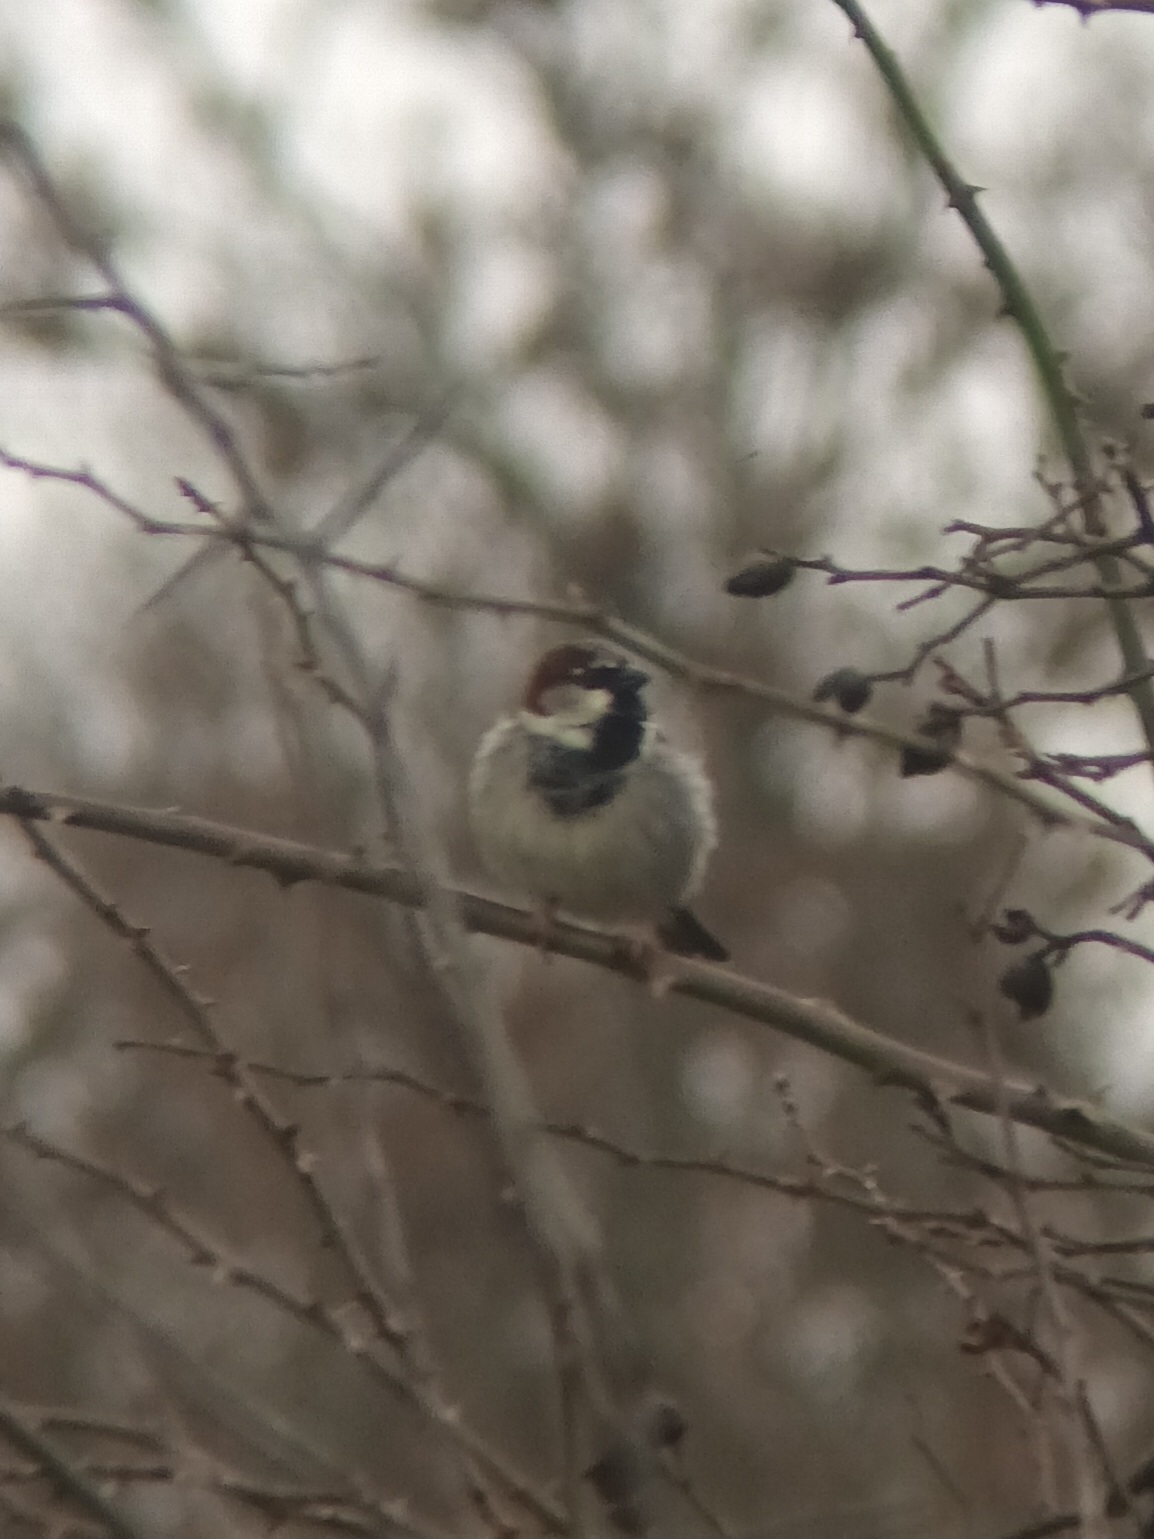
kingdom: Animalia
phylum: Chordata
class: Aves
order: Passeriformes
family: Passeridae
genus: Passer
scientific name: Passer domesticus
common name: House sparrow
